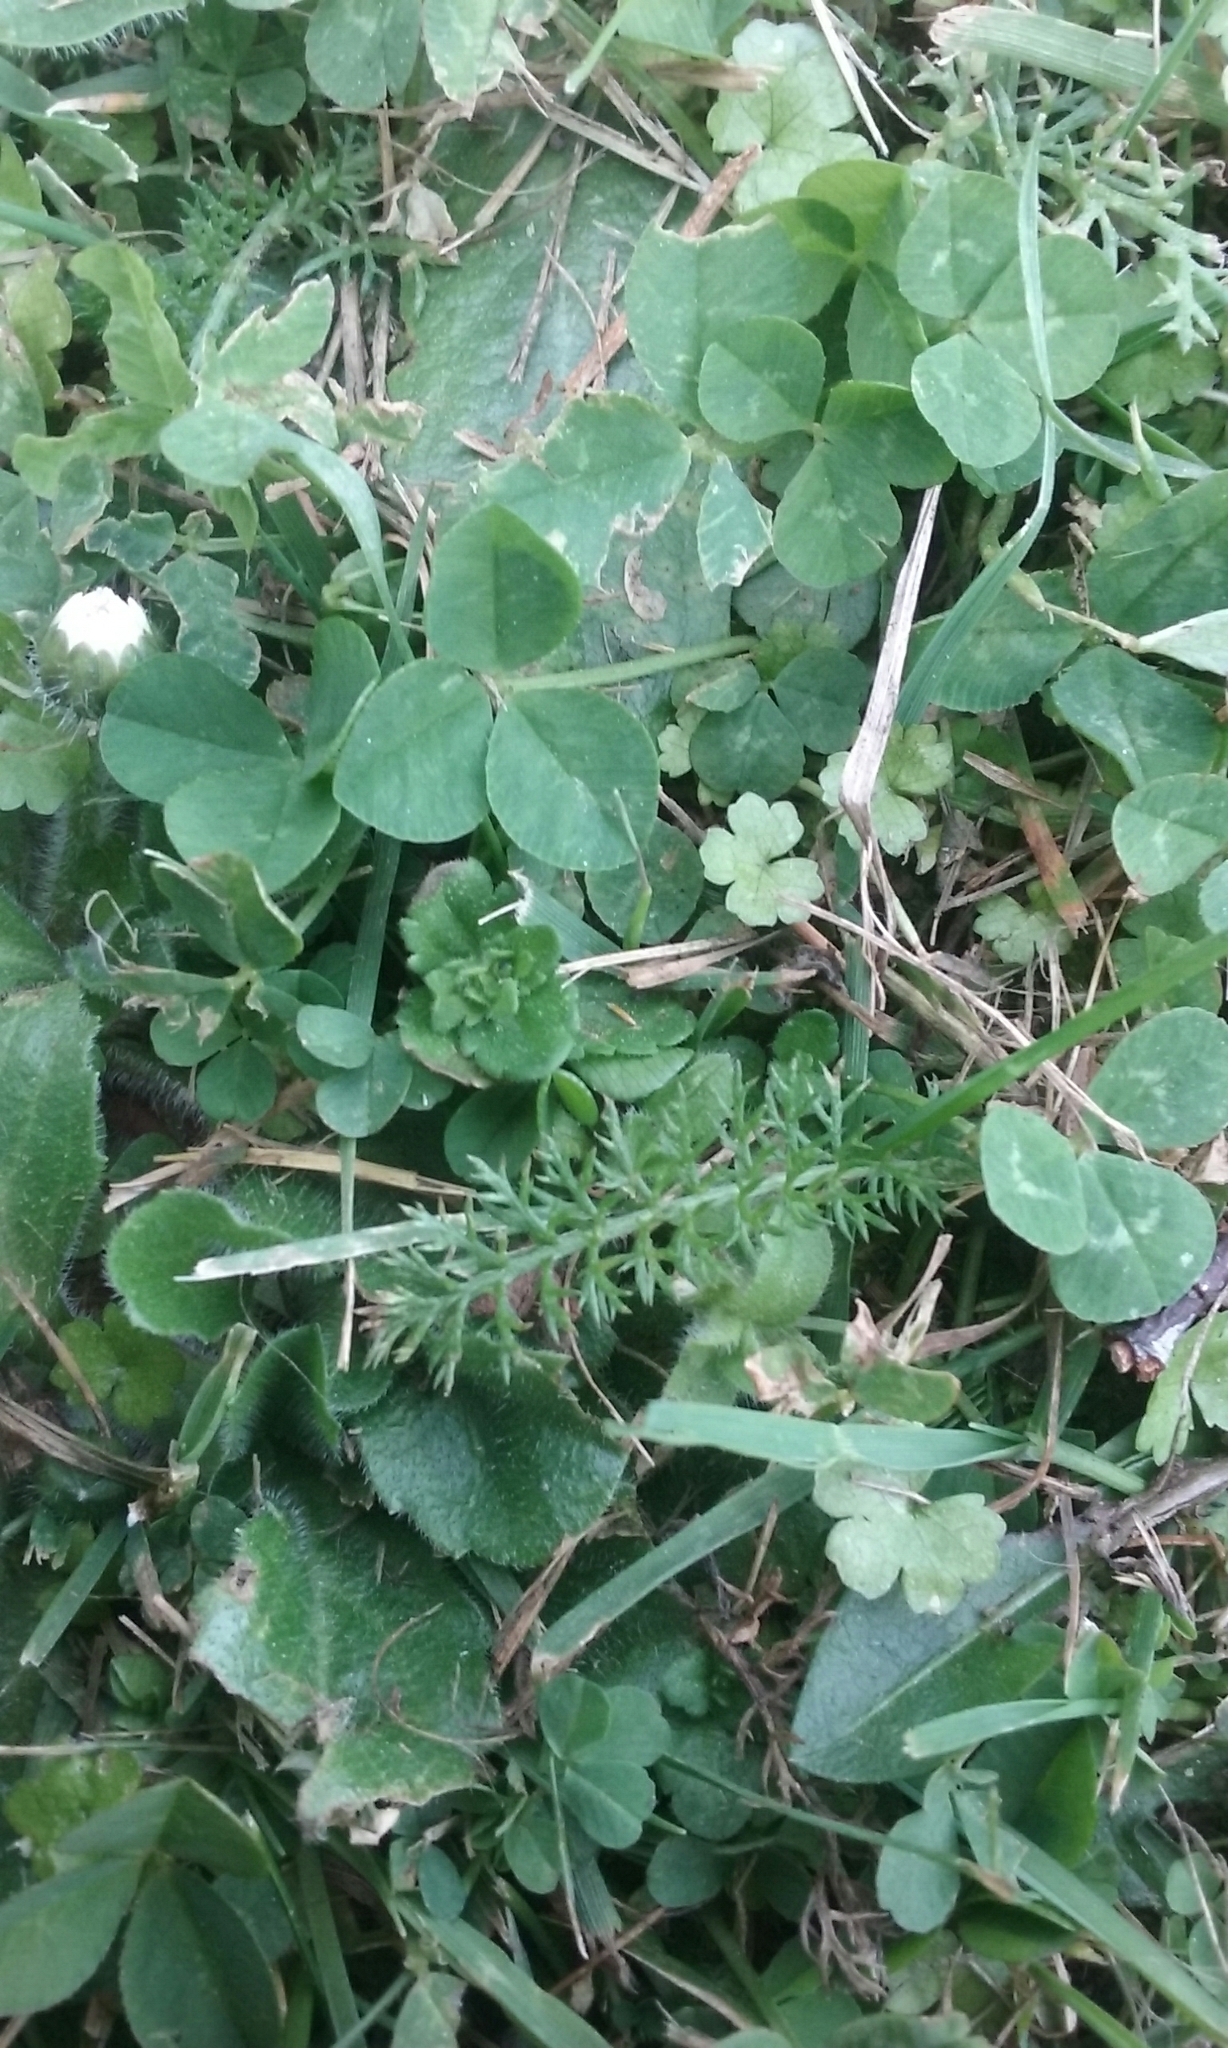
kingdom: Plantae
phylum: Tracheophyta
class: Magnoliopsida
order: Asterales
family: Asteraceae
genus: Achillea
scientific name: Achillea millefolium
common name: Yarrow
